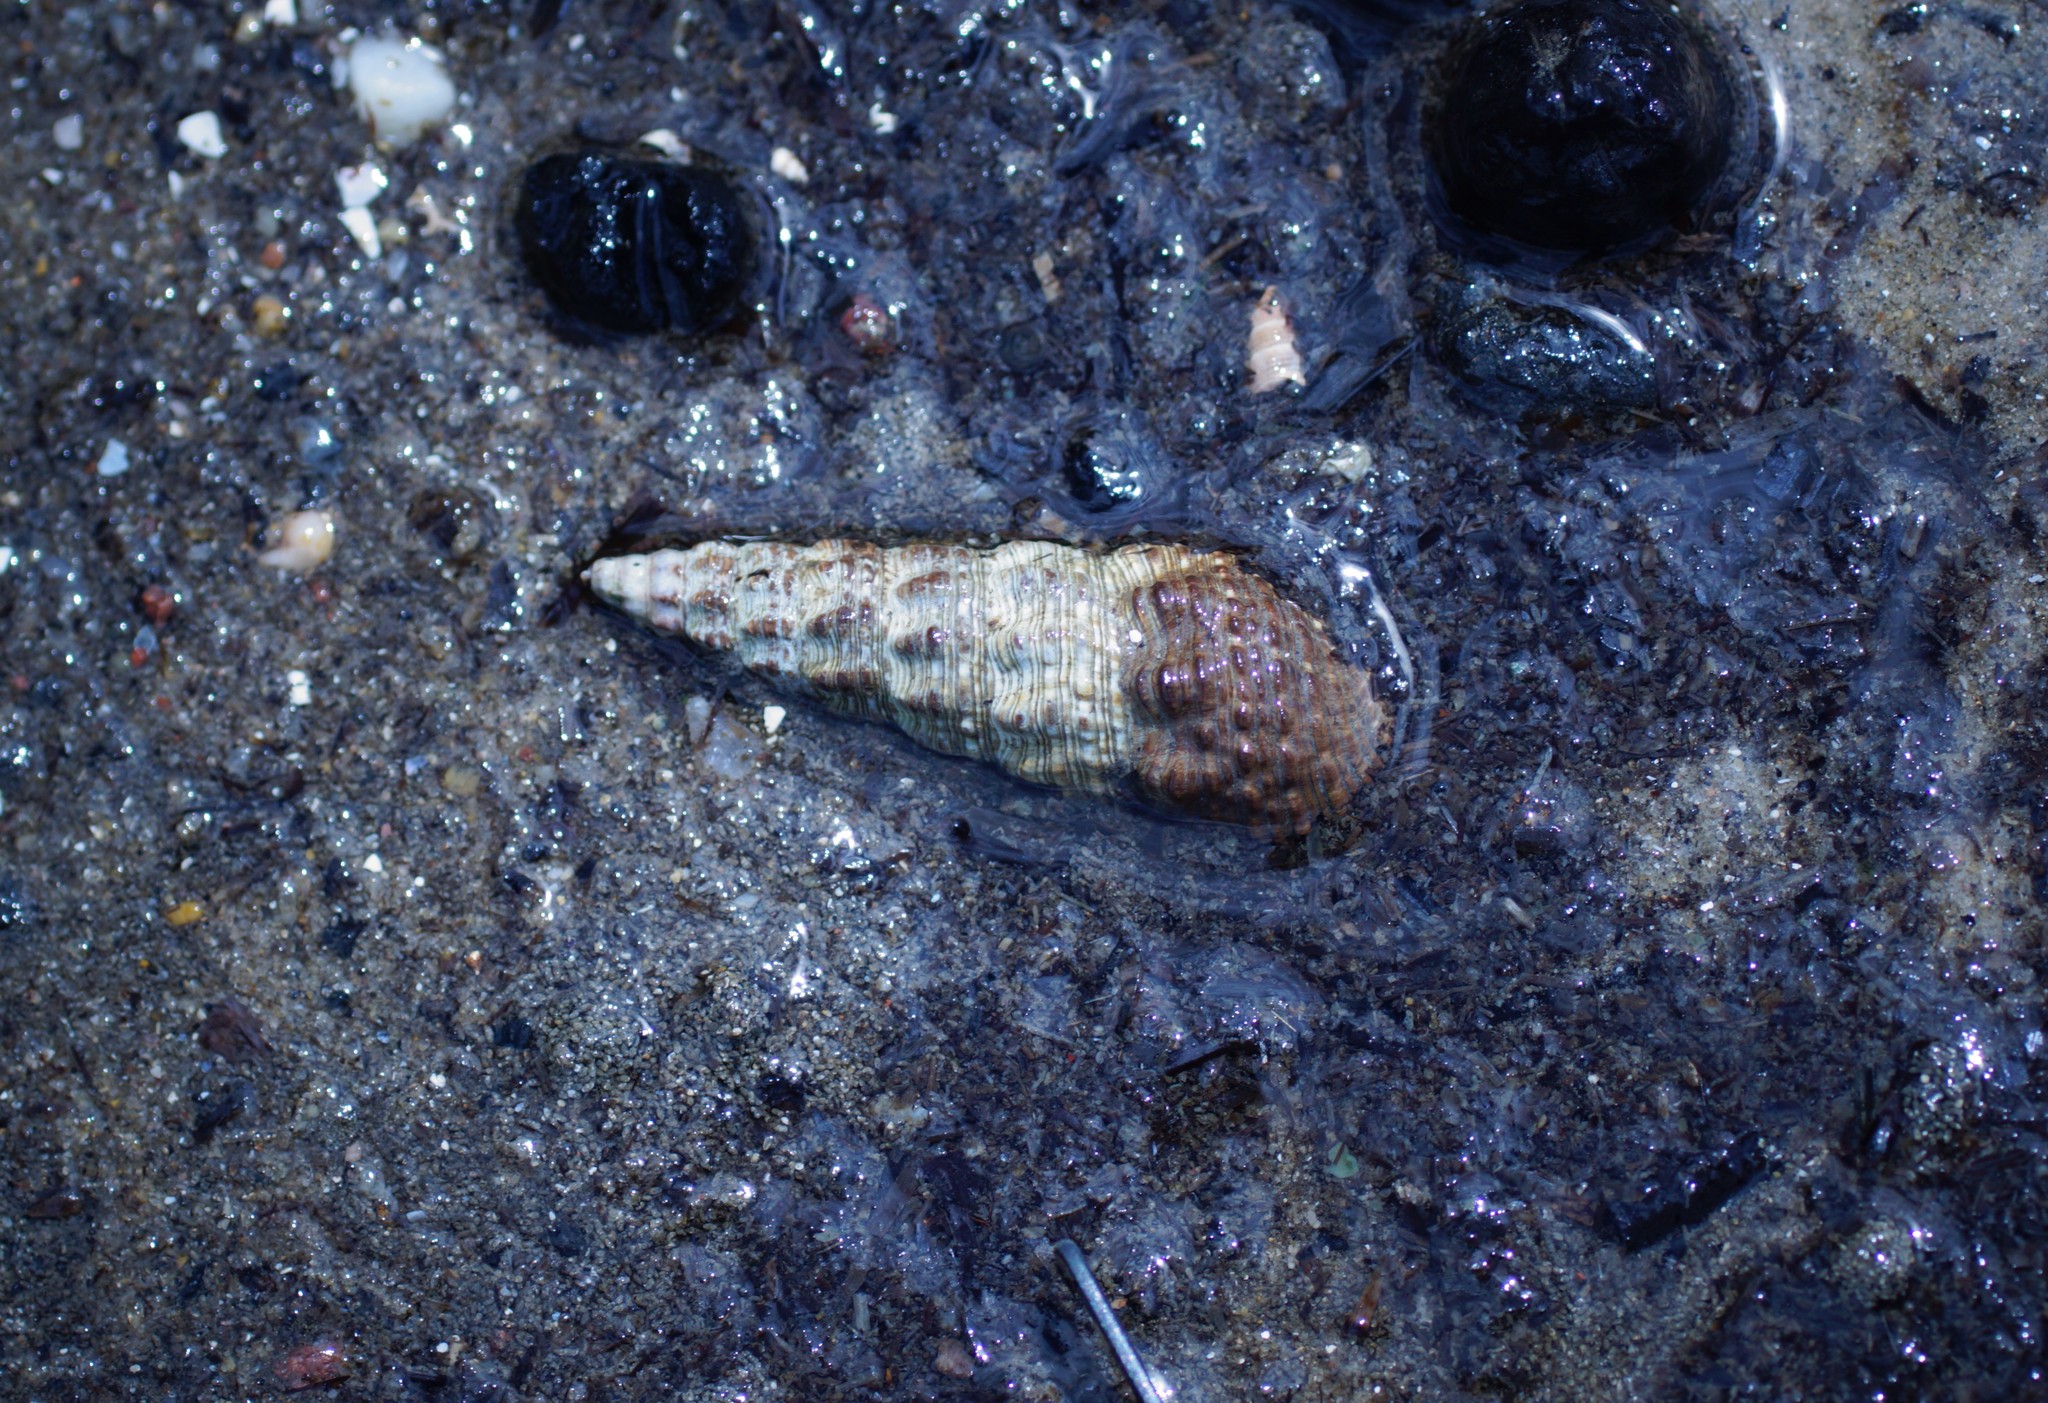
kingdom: Animalia
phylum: Mollusca
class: Gastropoda
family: Batillariidae
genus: Batillaria
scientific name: Batillaria australis
